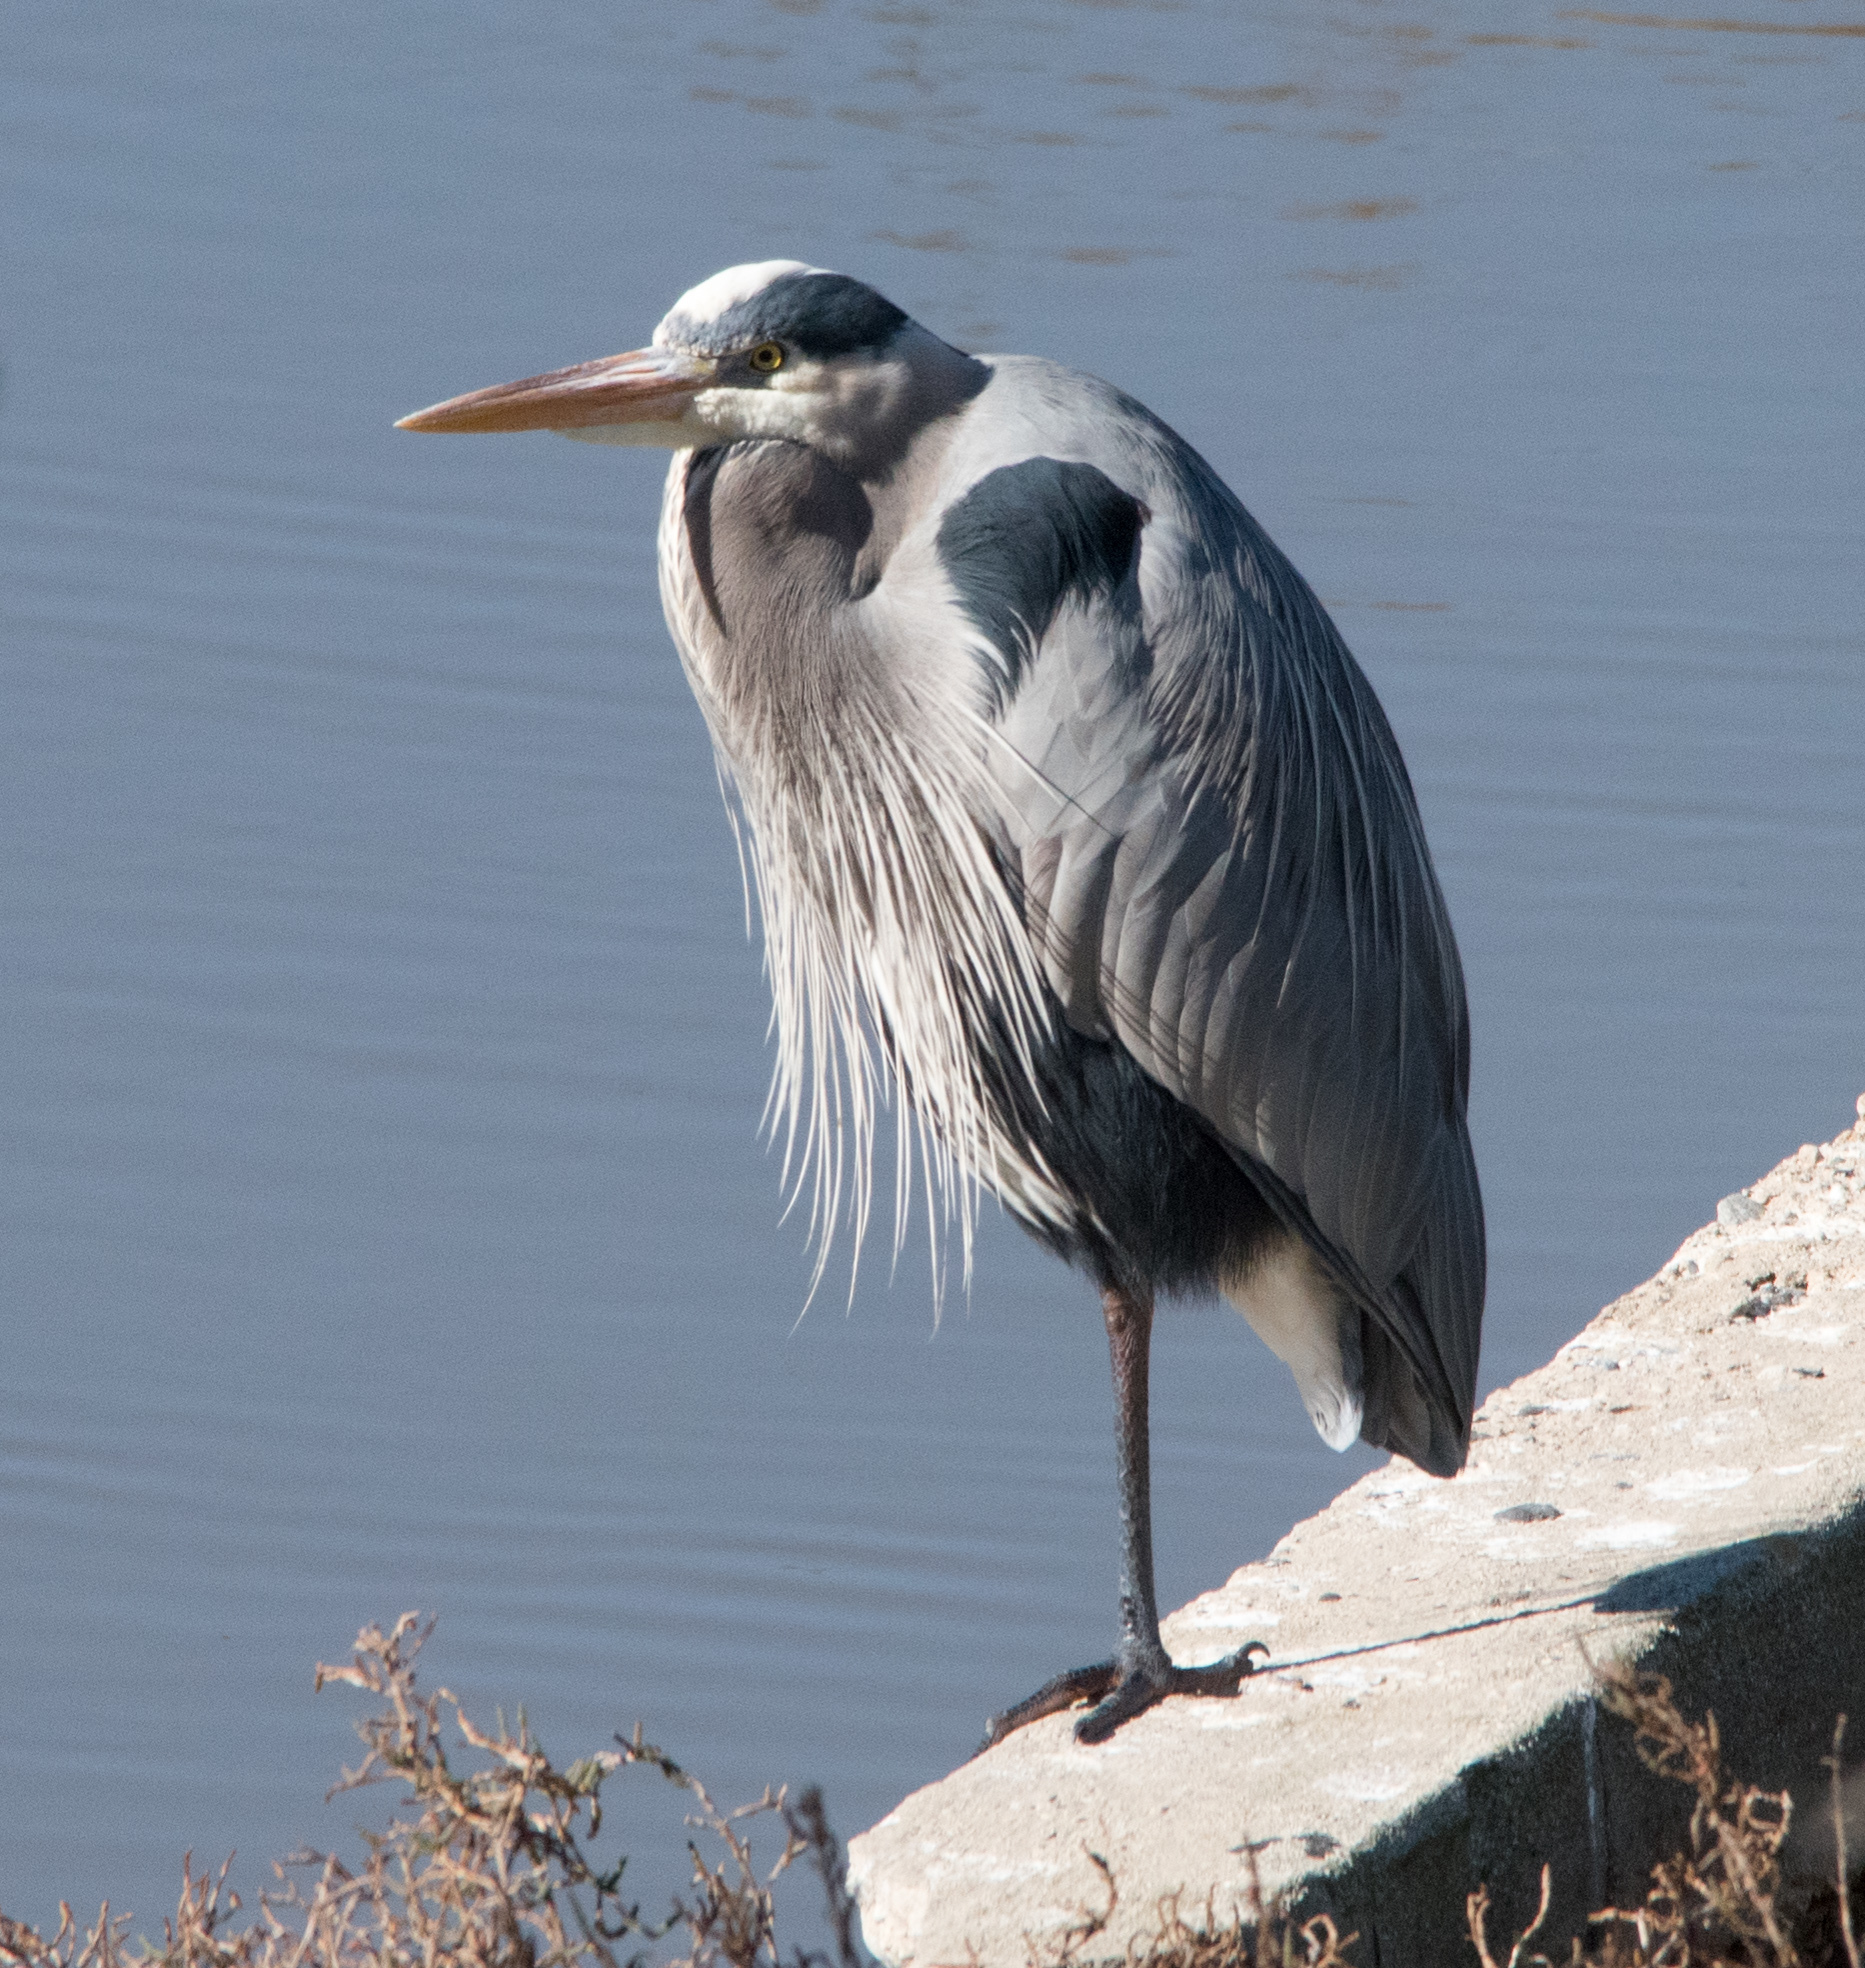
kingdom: Animalia
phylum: Chordata
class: Aves
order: Pelecaniformes
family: Ardeidae
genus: Ardea
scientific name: Ardea herodias
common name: Great blue heron
